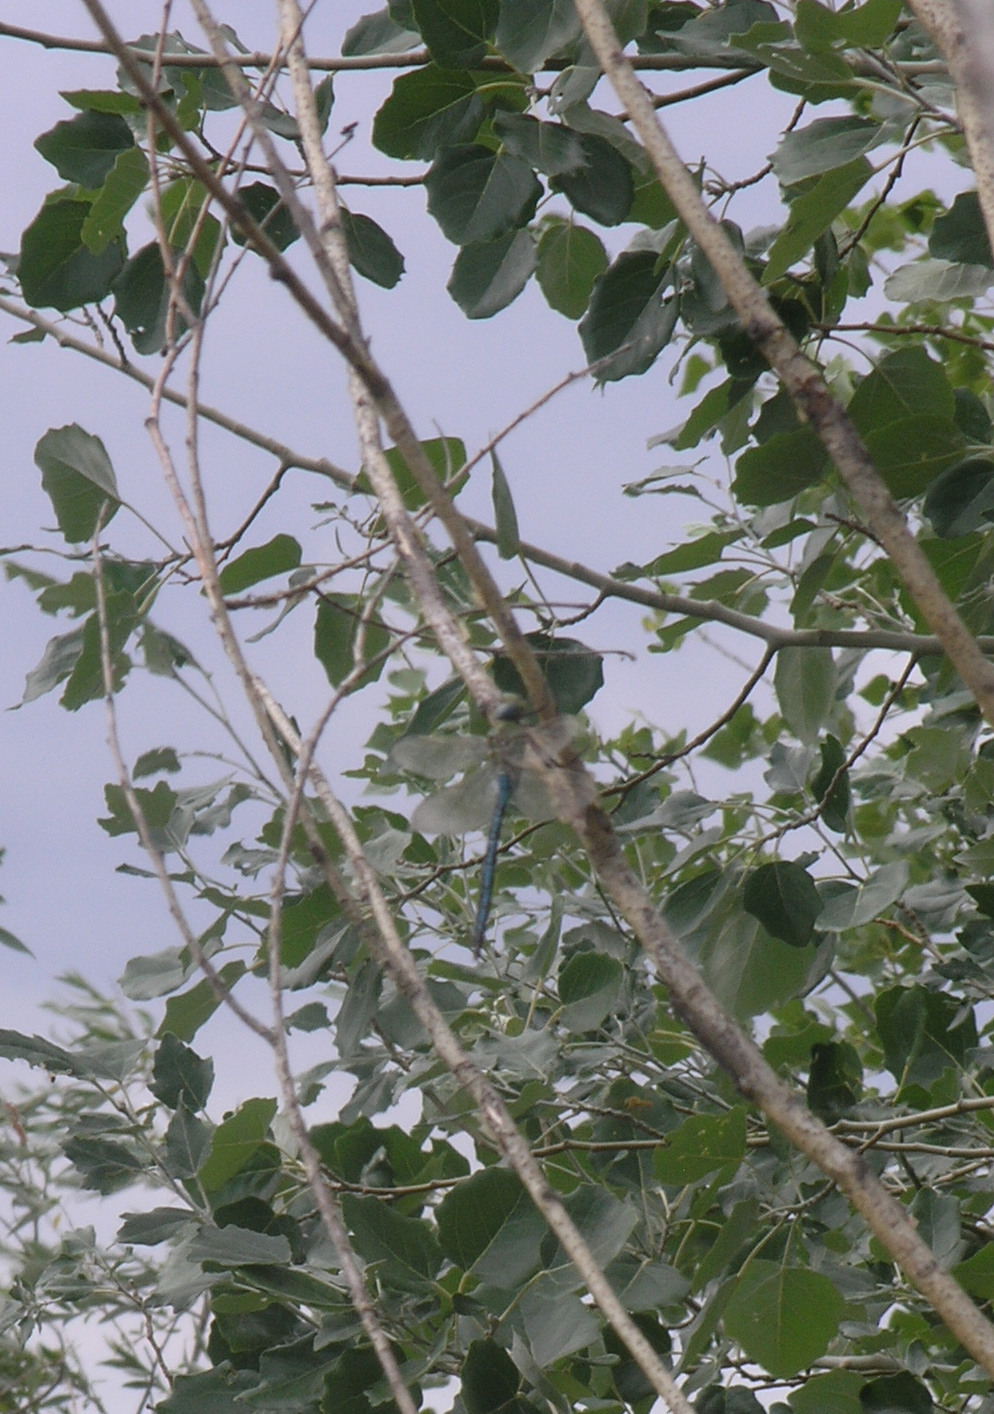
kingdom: Animalia
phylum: Arthropoda
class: Insecta
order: Odonata
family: Aeshnidae
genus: Anax
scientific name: Anax imperator
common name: Emperor dragonfly
